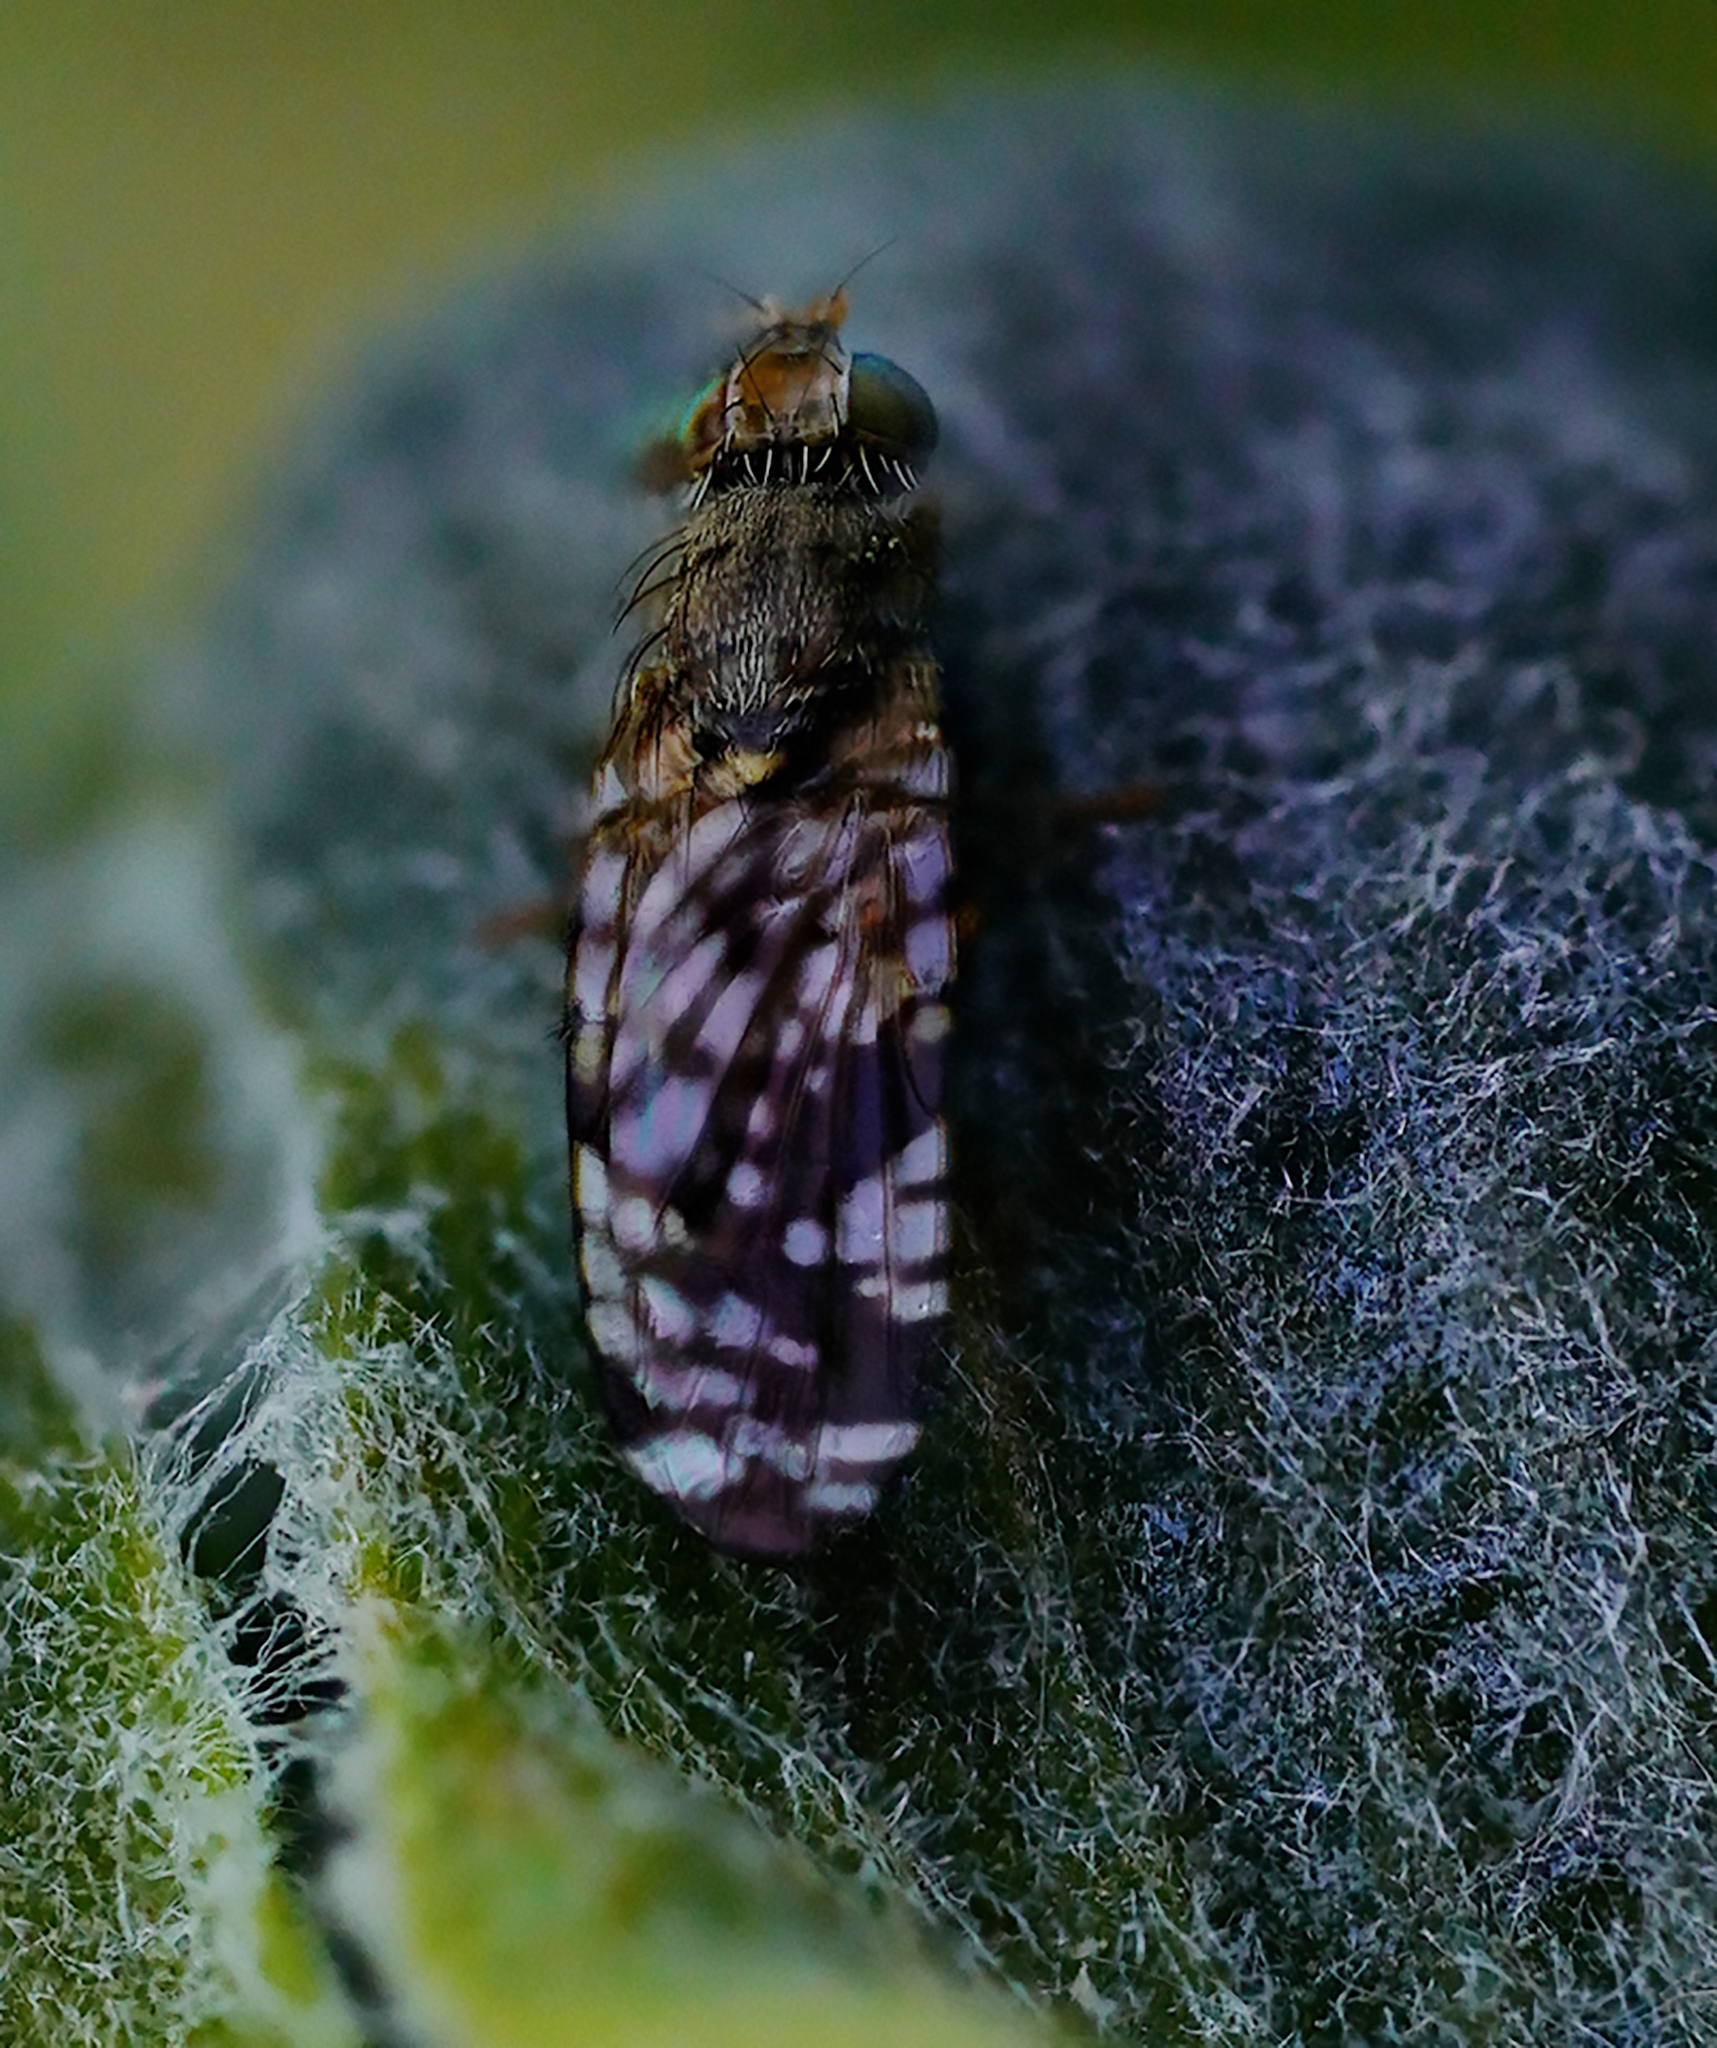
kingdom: Animalia
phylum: Arthropoda
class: Insecta
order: Diptera
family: Tephritidae
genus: Neotephritis
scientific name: Neotephritis finalis
